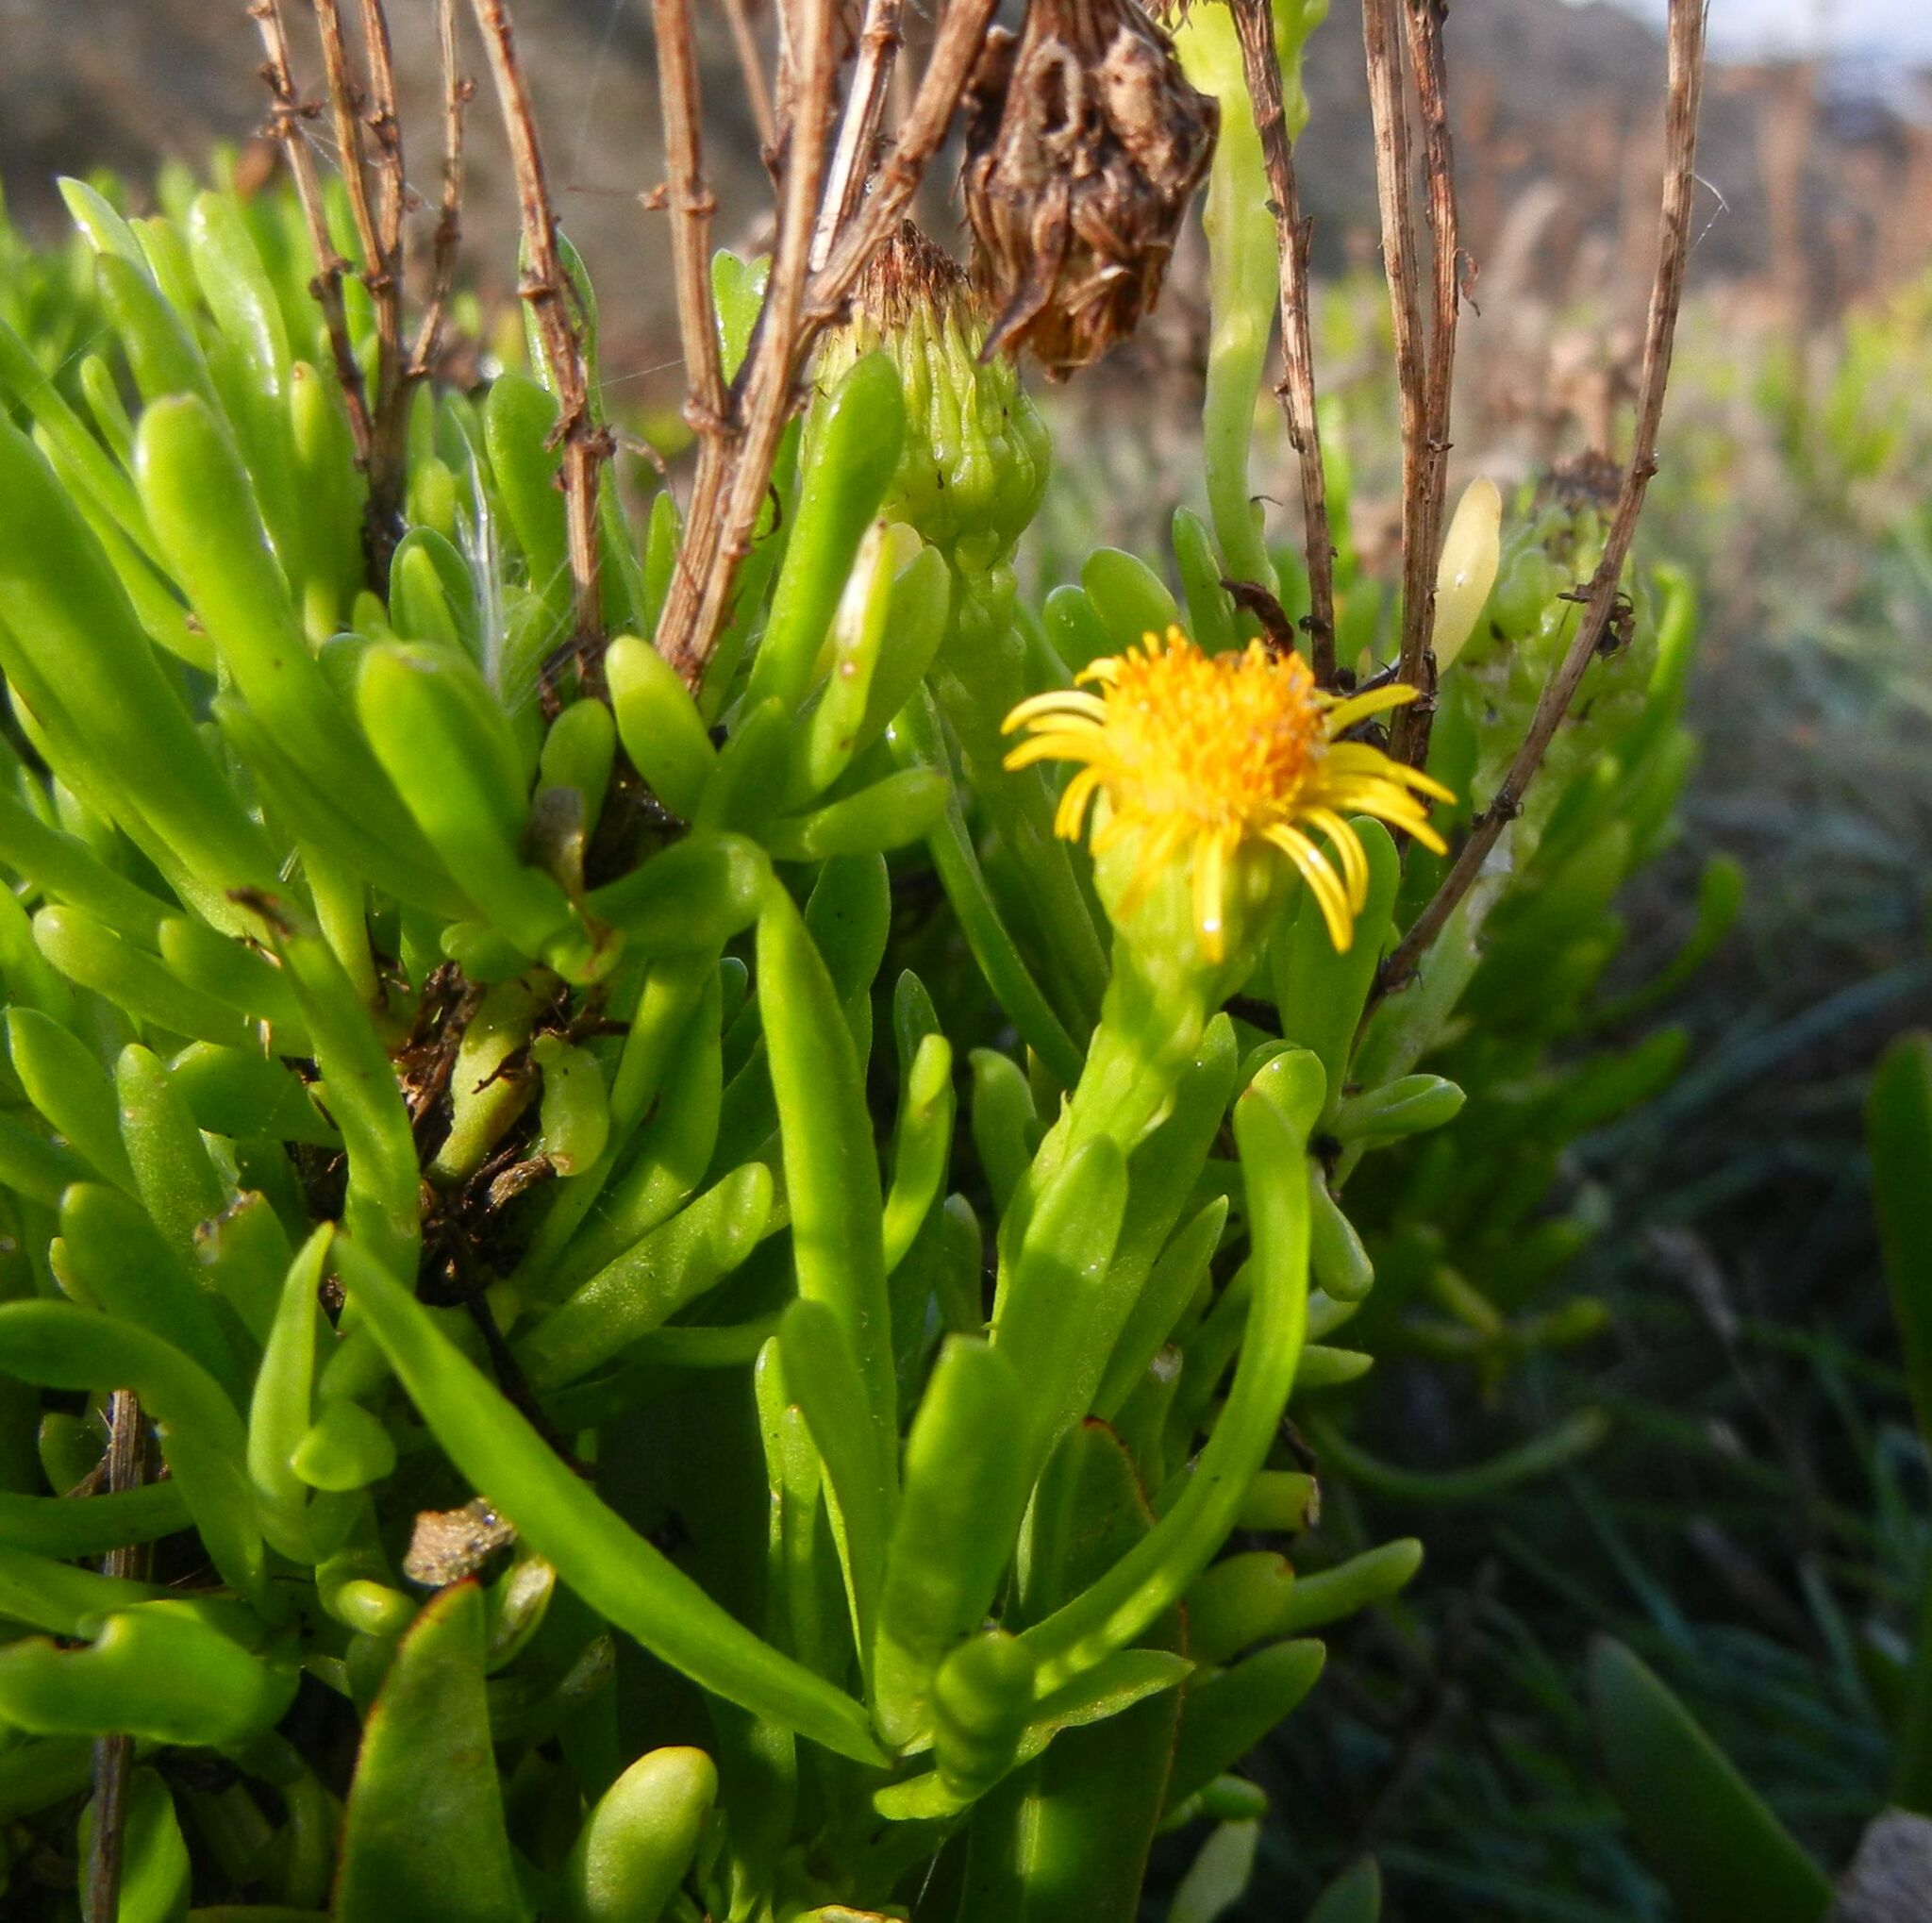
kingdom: Plantae
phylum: Tracheophyta
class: Magnoliopsida
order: Asterales
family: Asteraceae
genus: Limbarda
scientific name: Limbarda crithmoides
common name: Golden samphire
